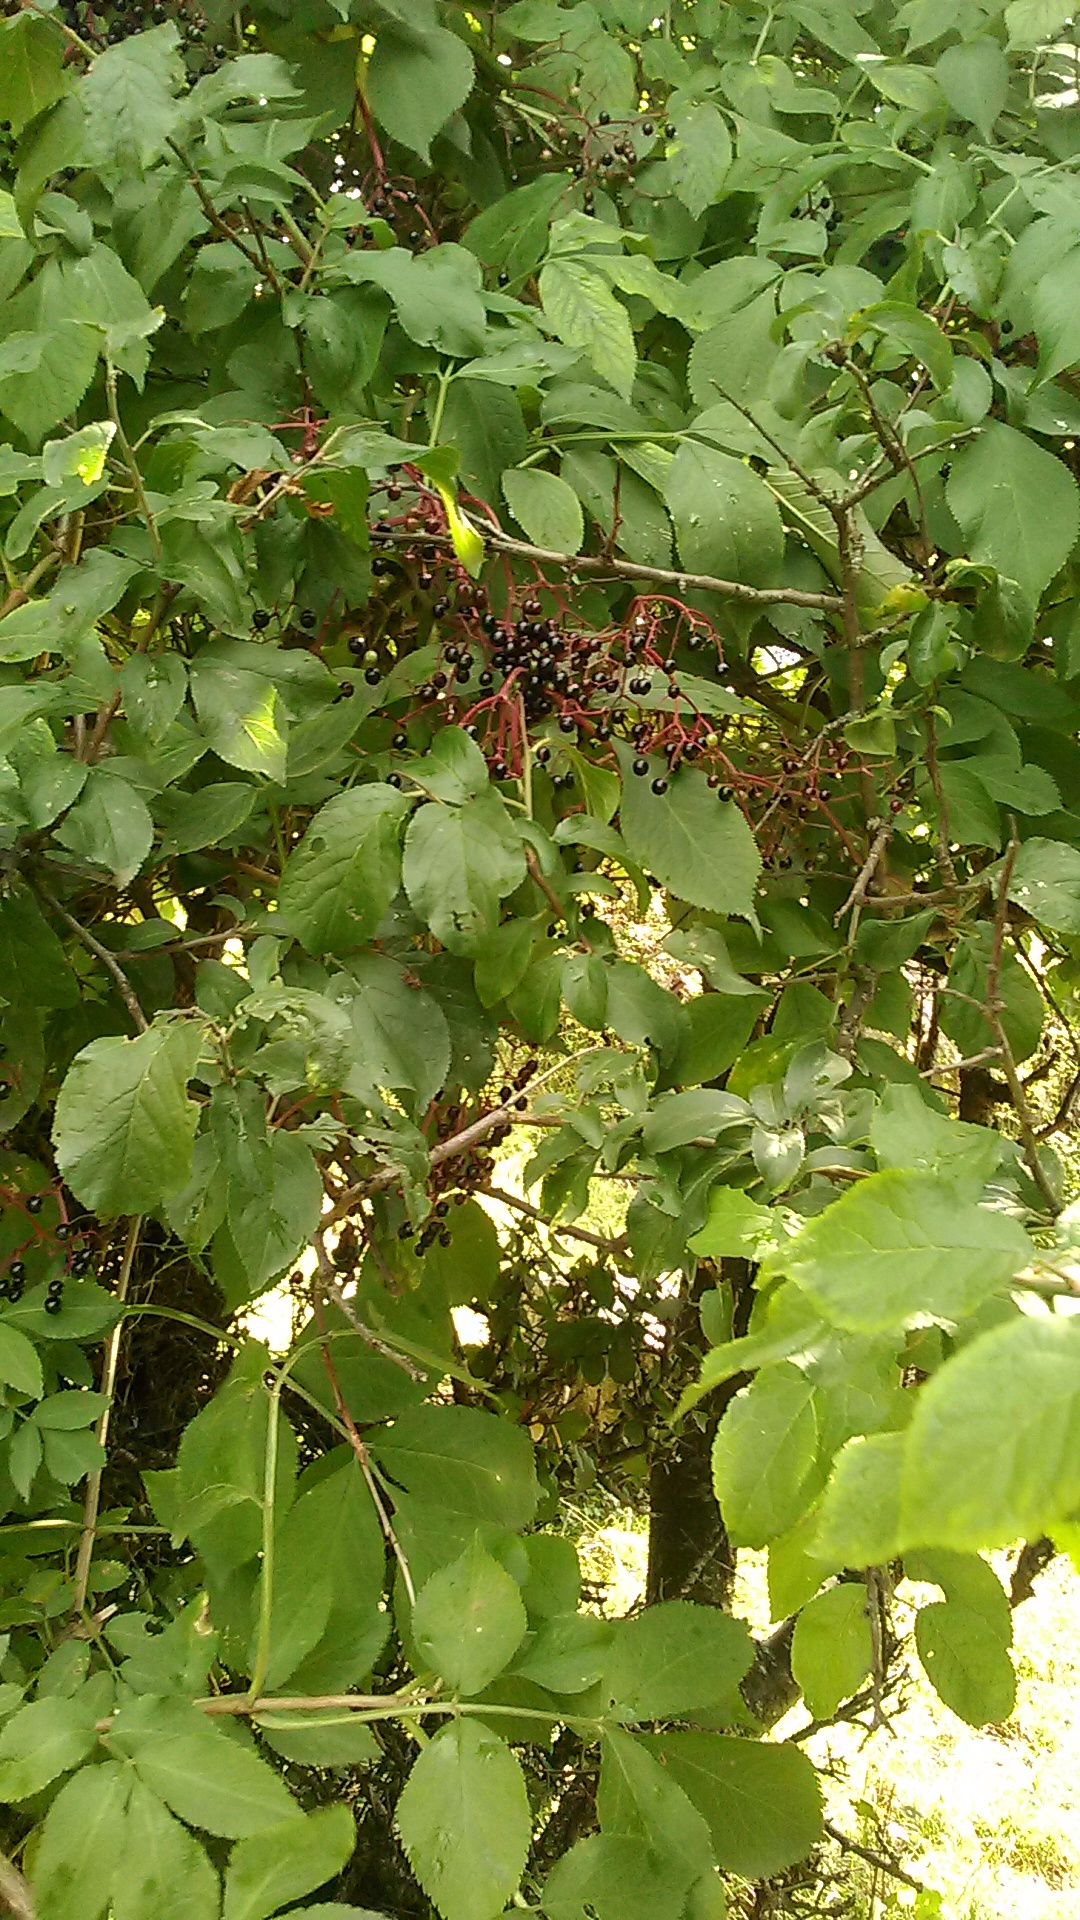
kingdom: Plantae
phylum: Tracheophyta
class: Magnoliopsida
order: Dipsacales
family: Viburnaceae
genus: Sambucus
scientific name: Sambucus nigra
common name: Elder
